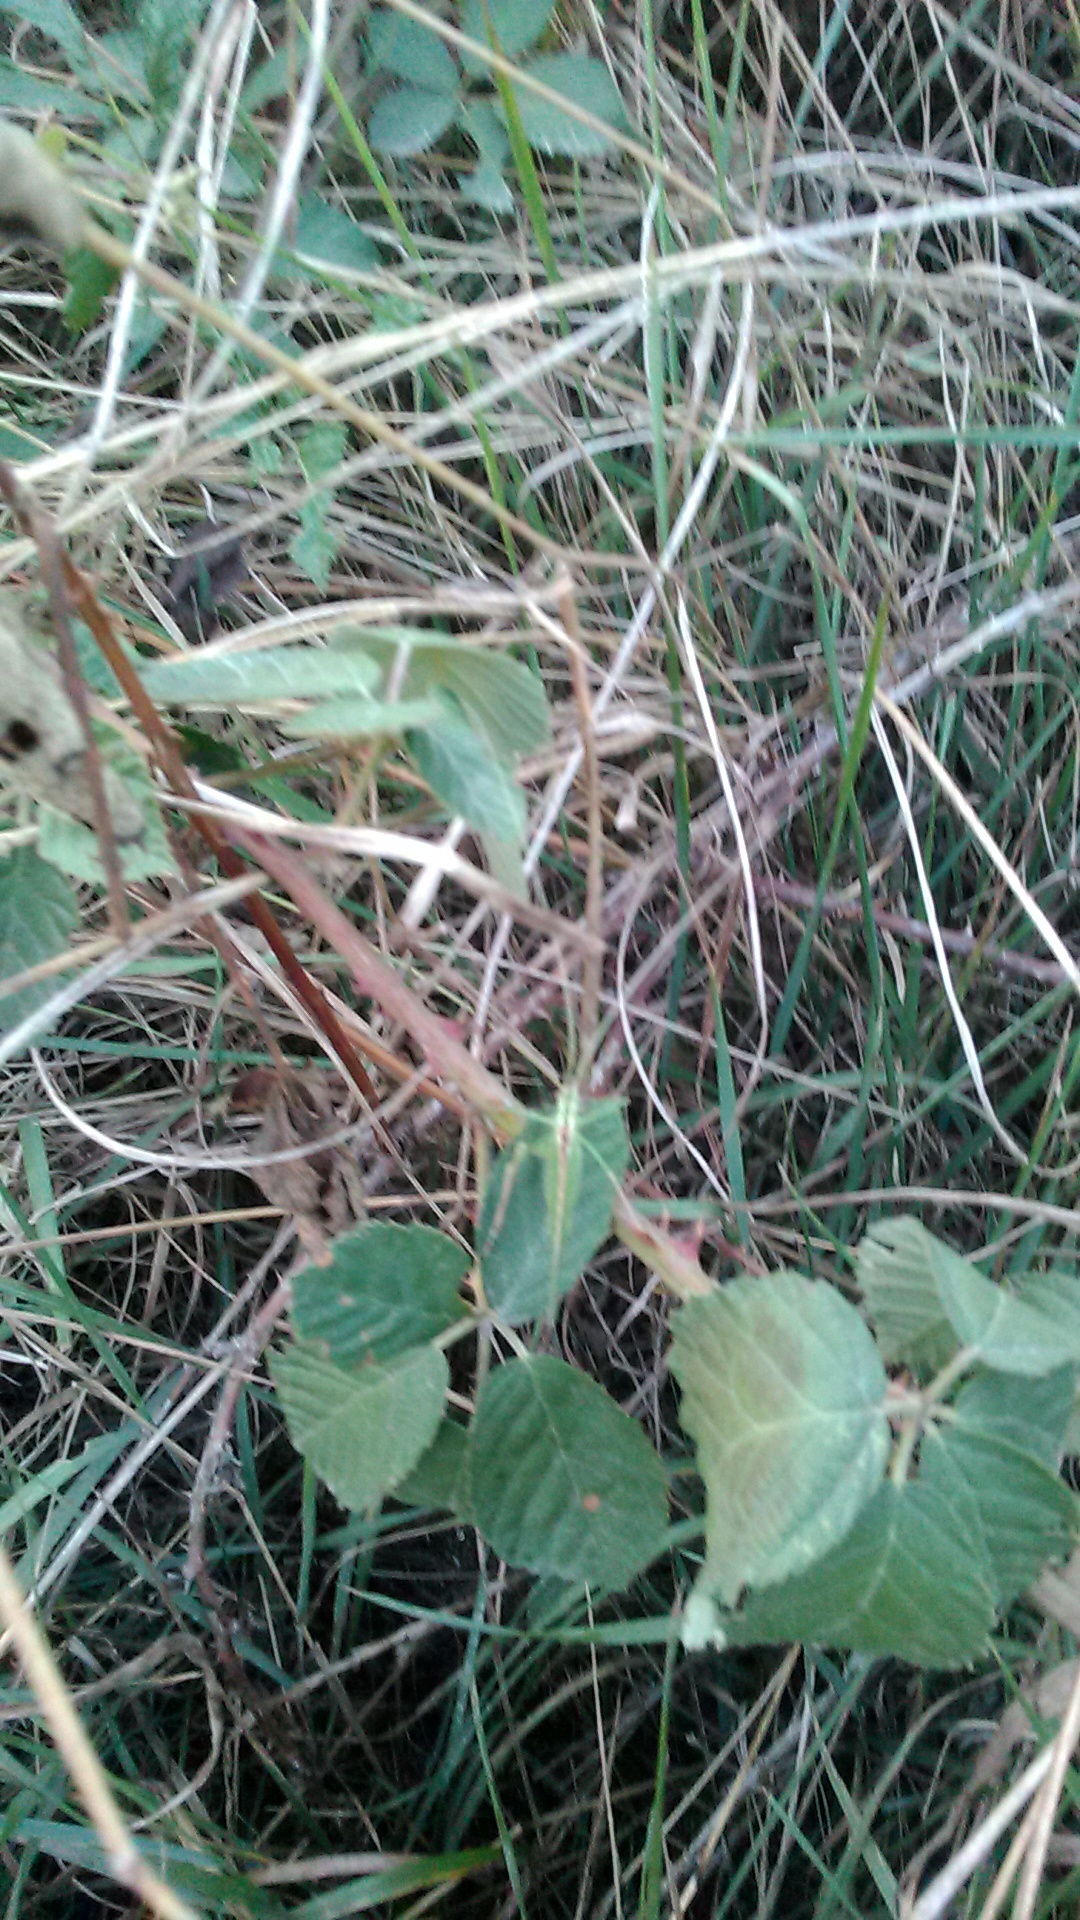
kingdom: Animalia
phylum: Arthropoda
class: Insecta
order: Orthoptera
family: Tettigoniidae
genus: Tylopsis
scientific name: Tylopsis lilifolia
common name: Lily bush-cricket
